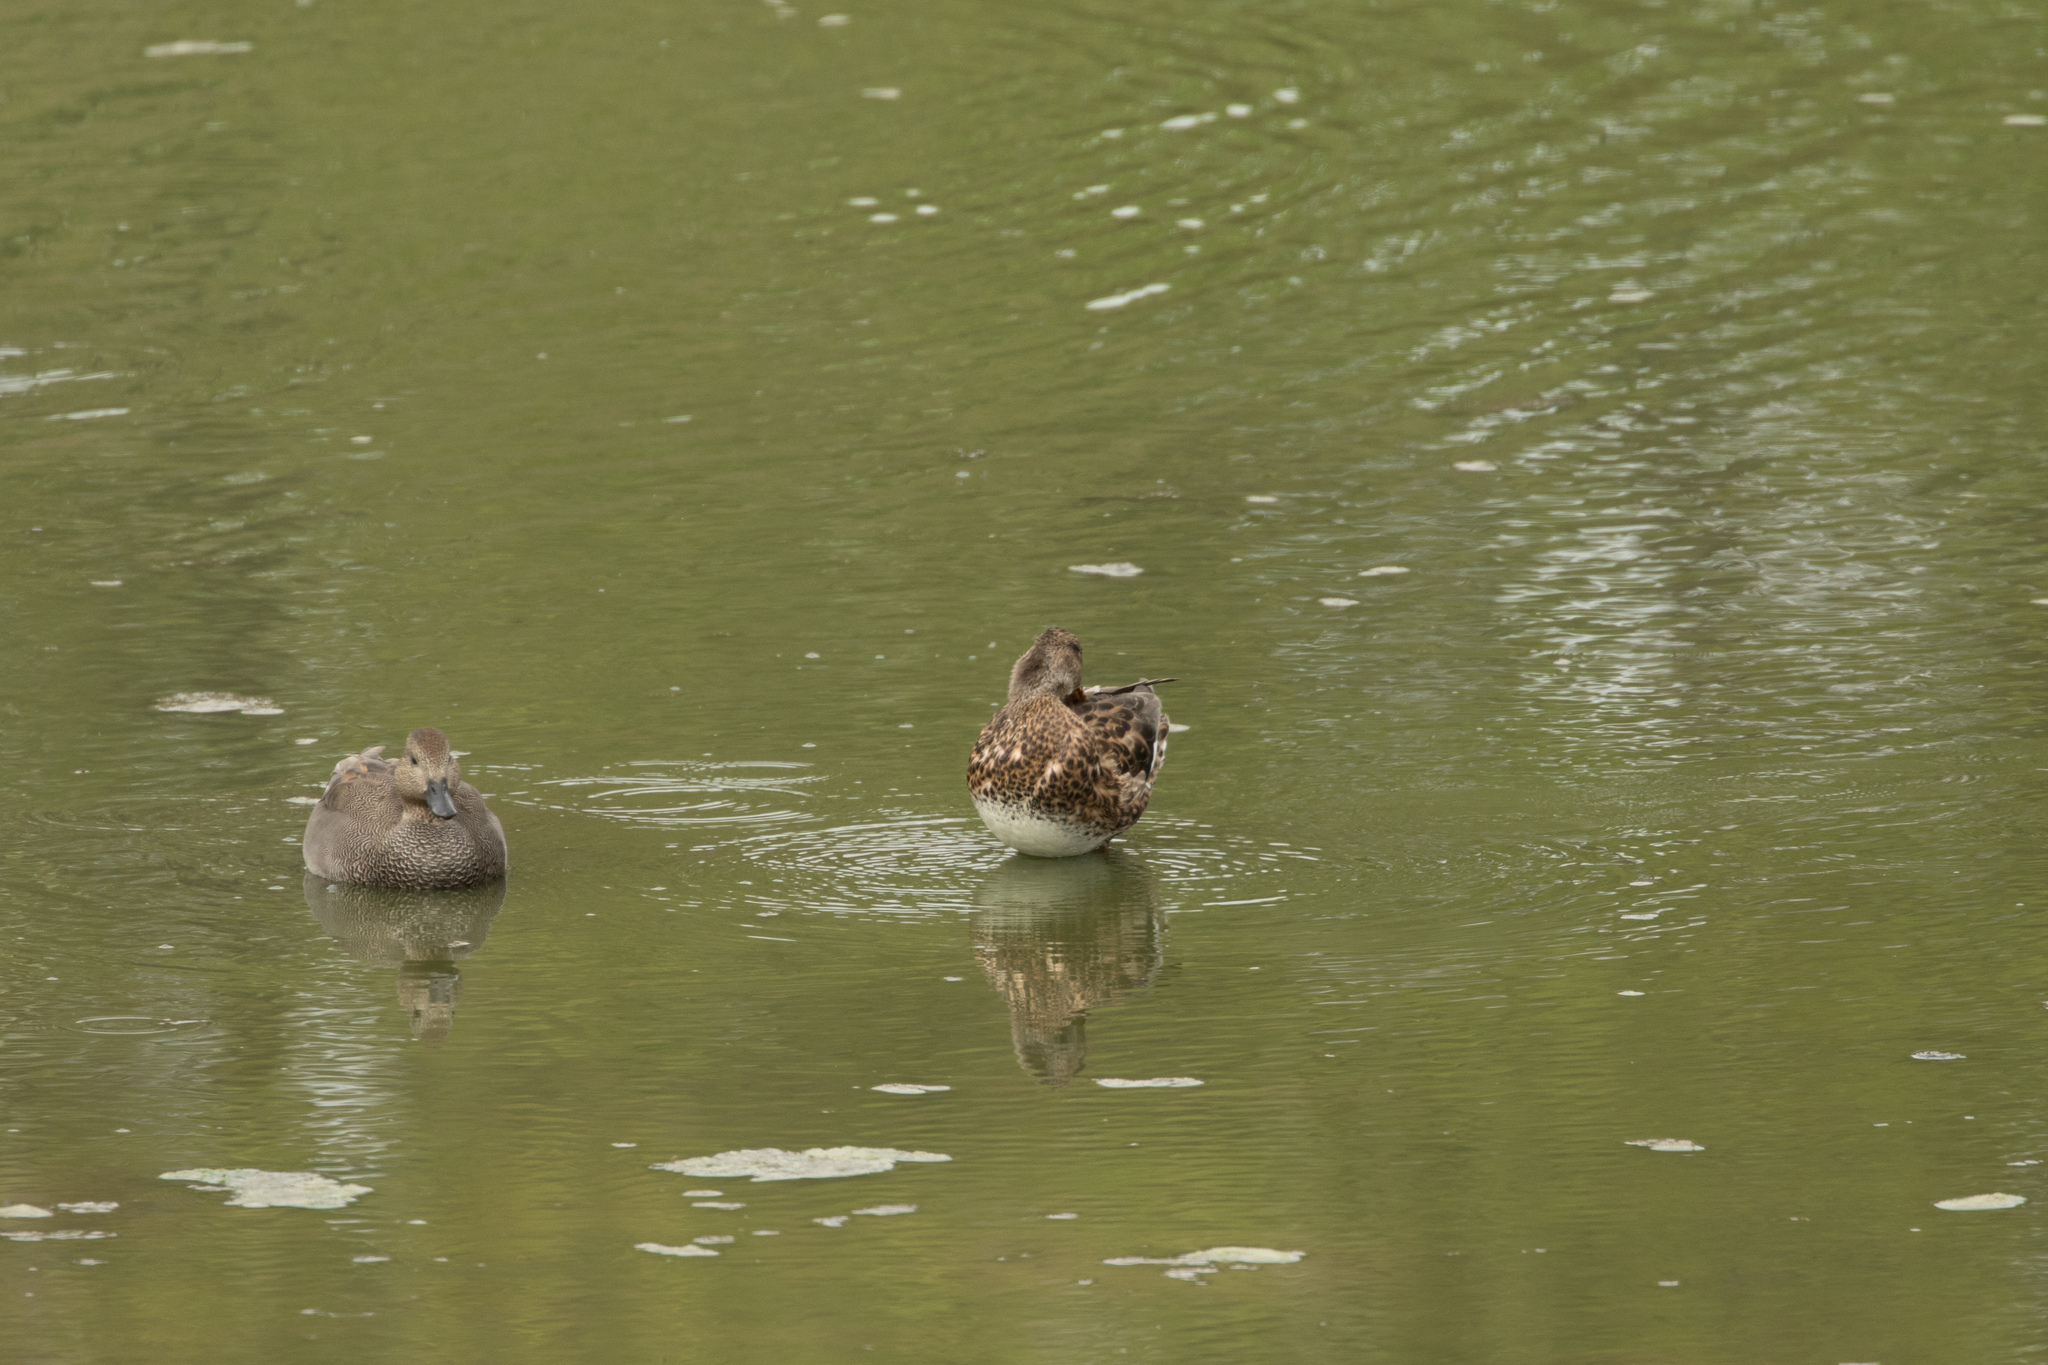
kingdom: Animalia
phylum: Chordata
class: Aves
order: Anseriformes
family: Anatidae
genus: Mareca
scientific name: Mareca strepera
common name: Gadwall
